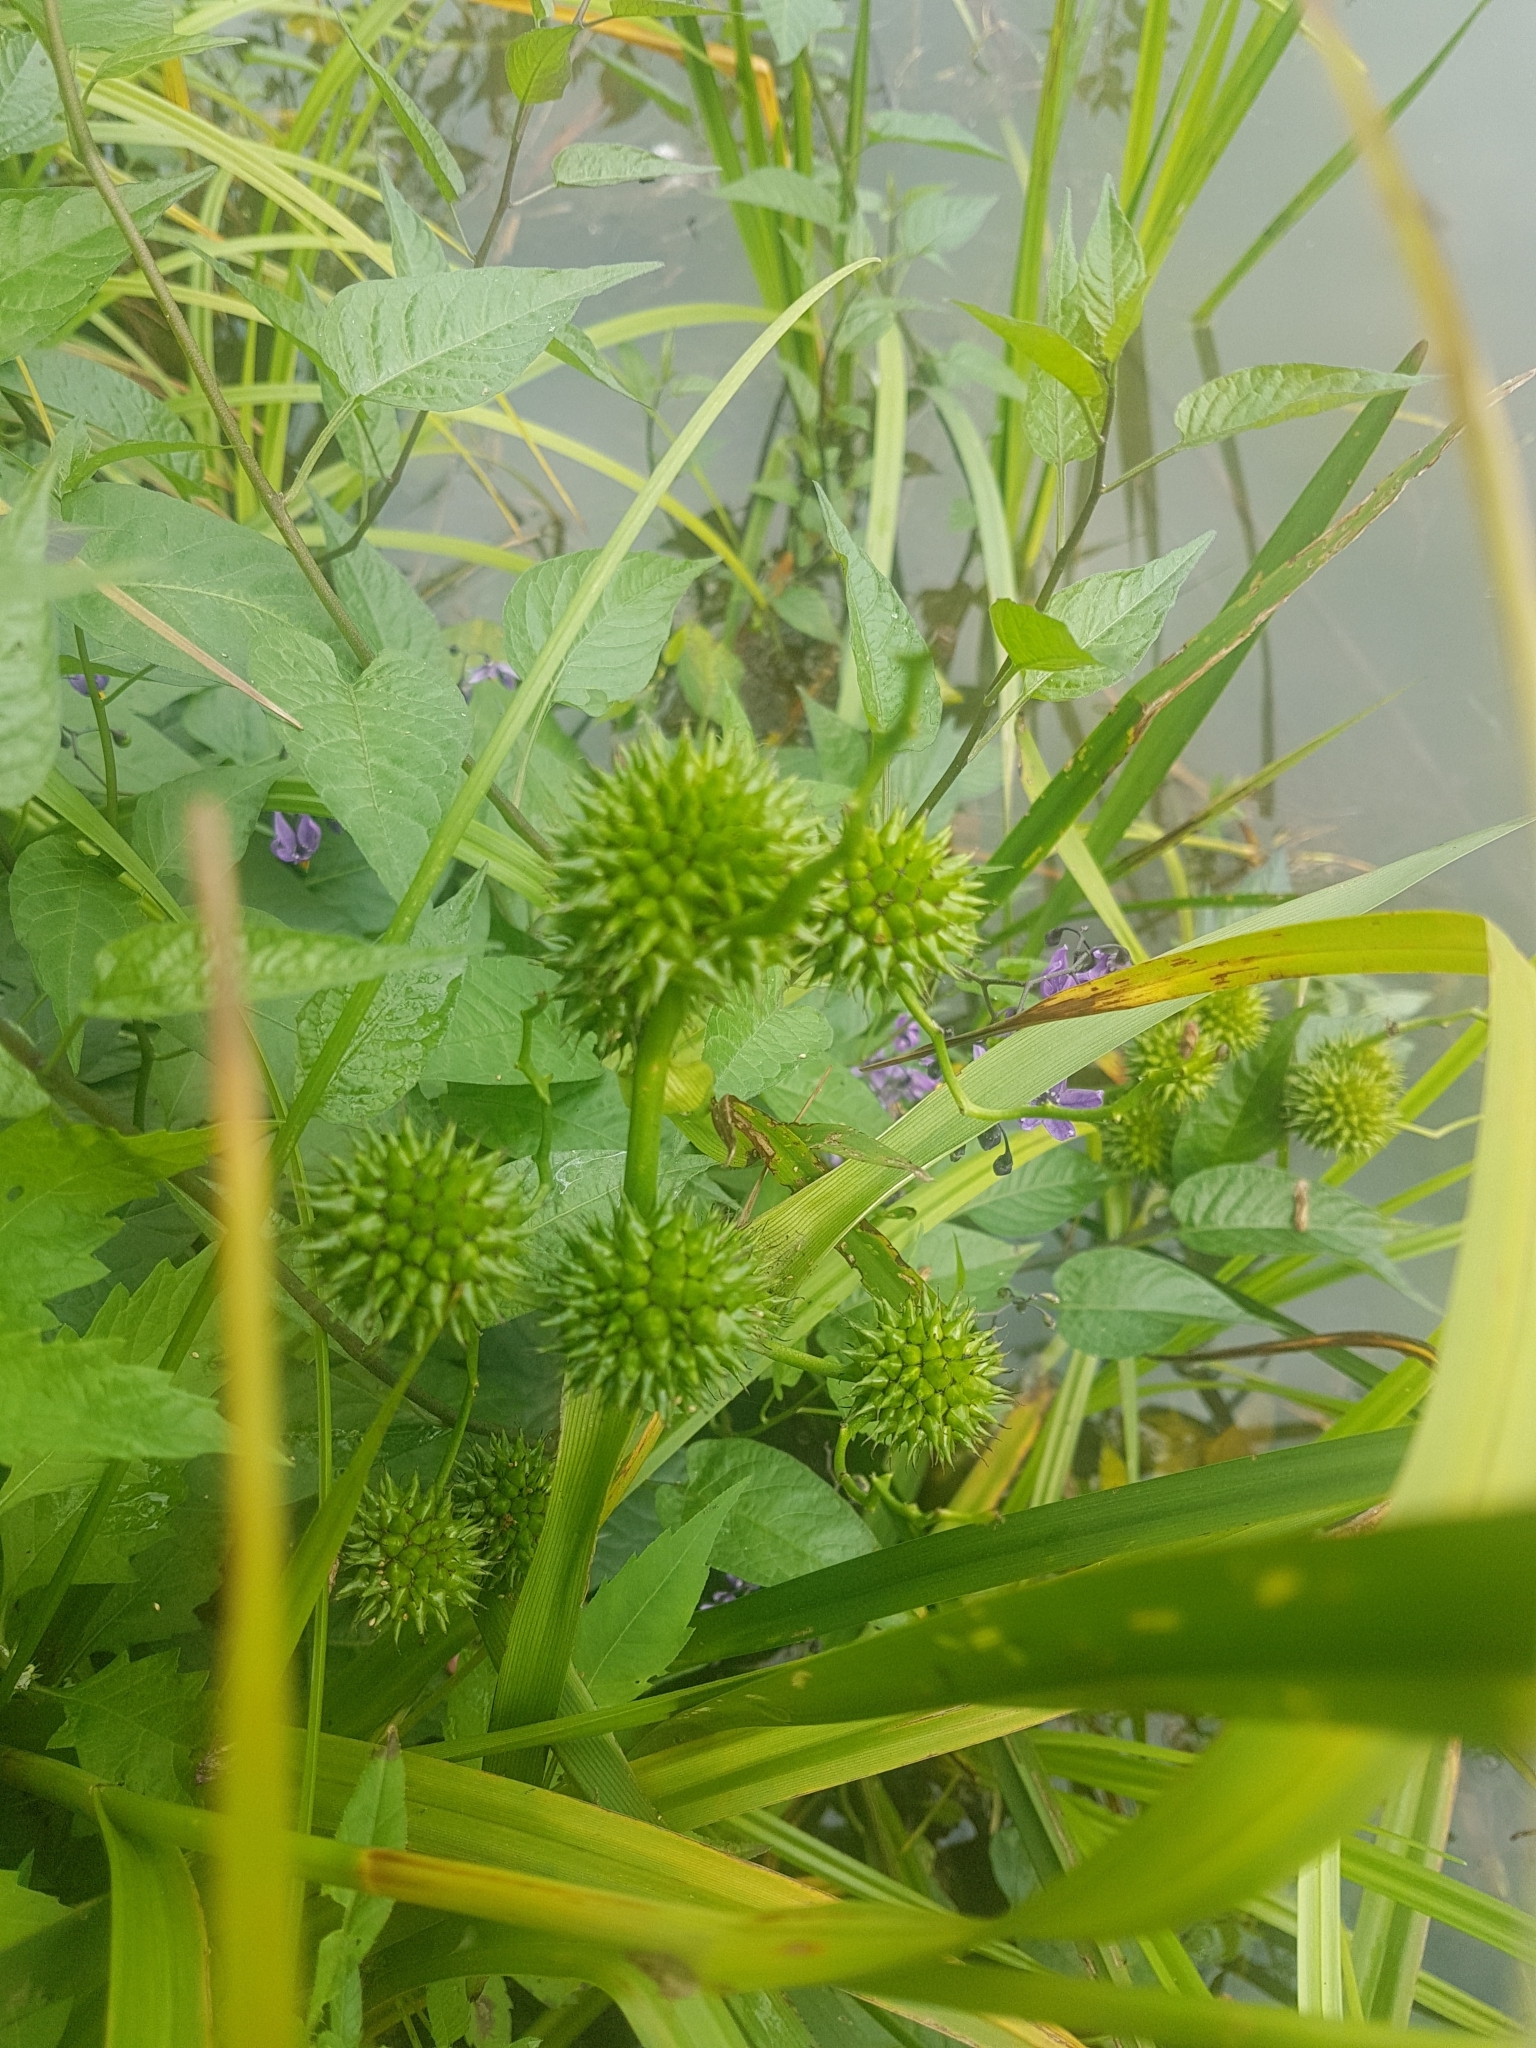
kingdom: Plantae
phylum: Tracheophyta
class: Liliopsida
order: Poales
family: Typhaceae
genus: Sparganium
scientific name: Sparganium erectum
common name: Branched bur-reed
